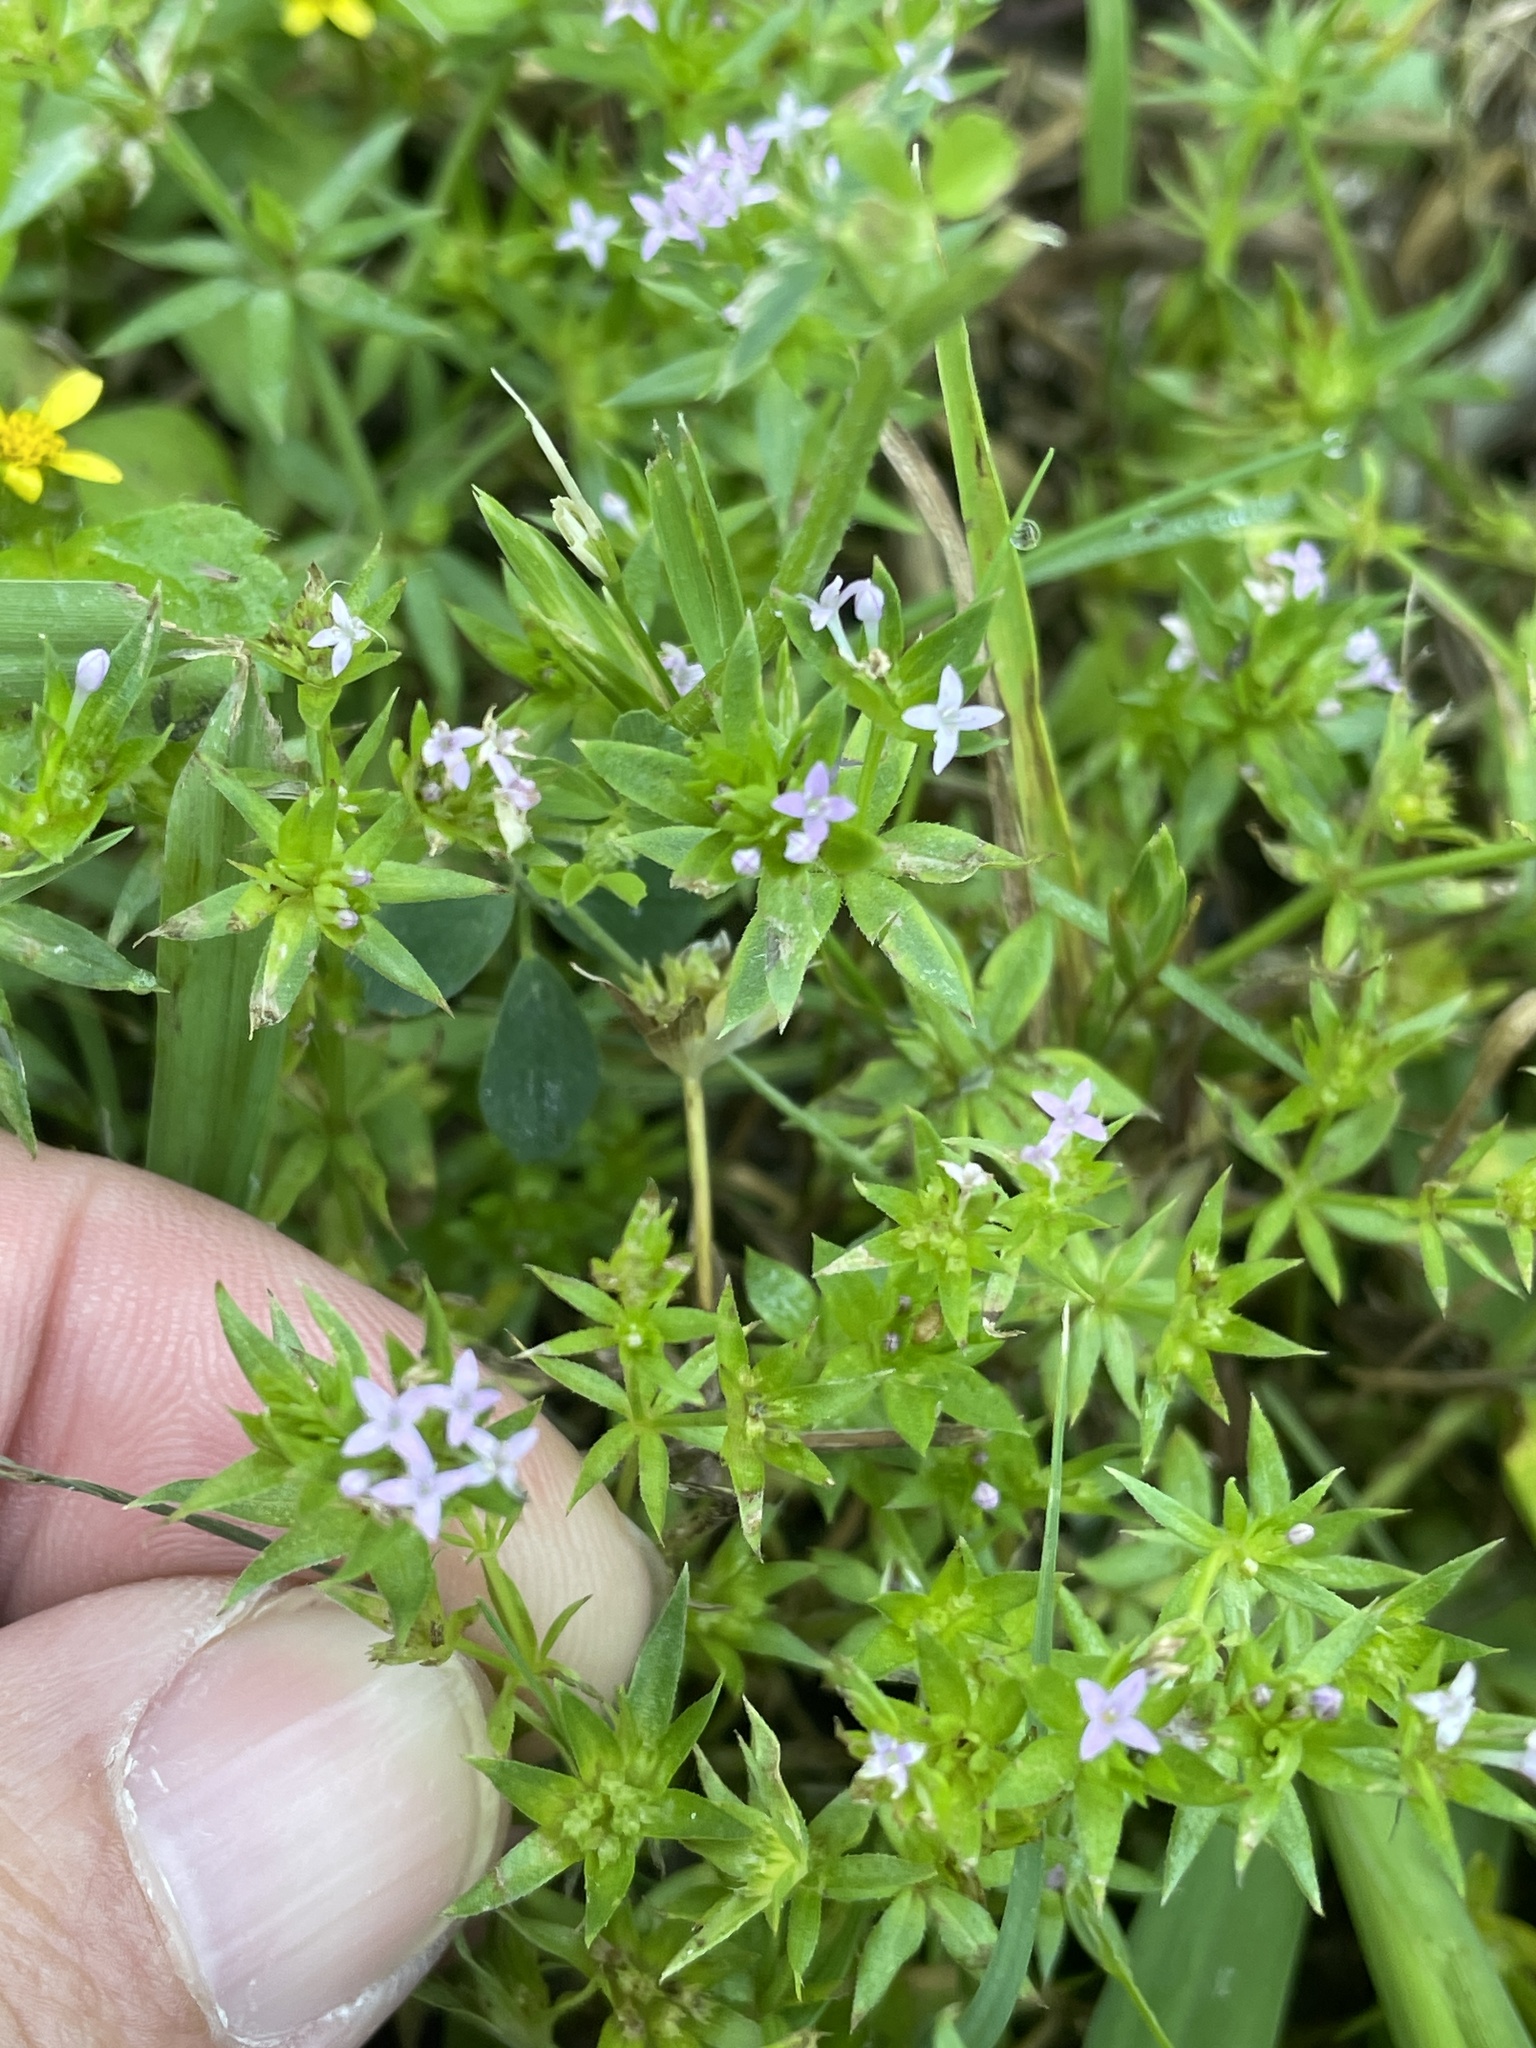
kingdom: Plantae
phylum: Tracheophyta
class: Magnoliopsida
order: Gentianales
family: Rubiaceae
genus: Sherardia
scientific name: Sherardia arvensis
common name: Field madder
